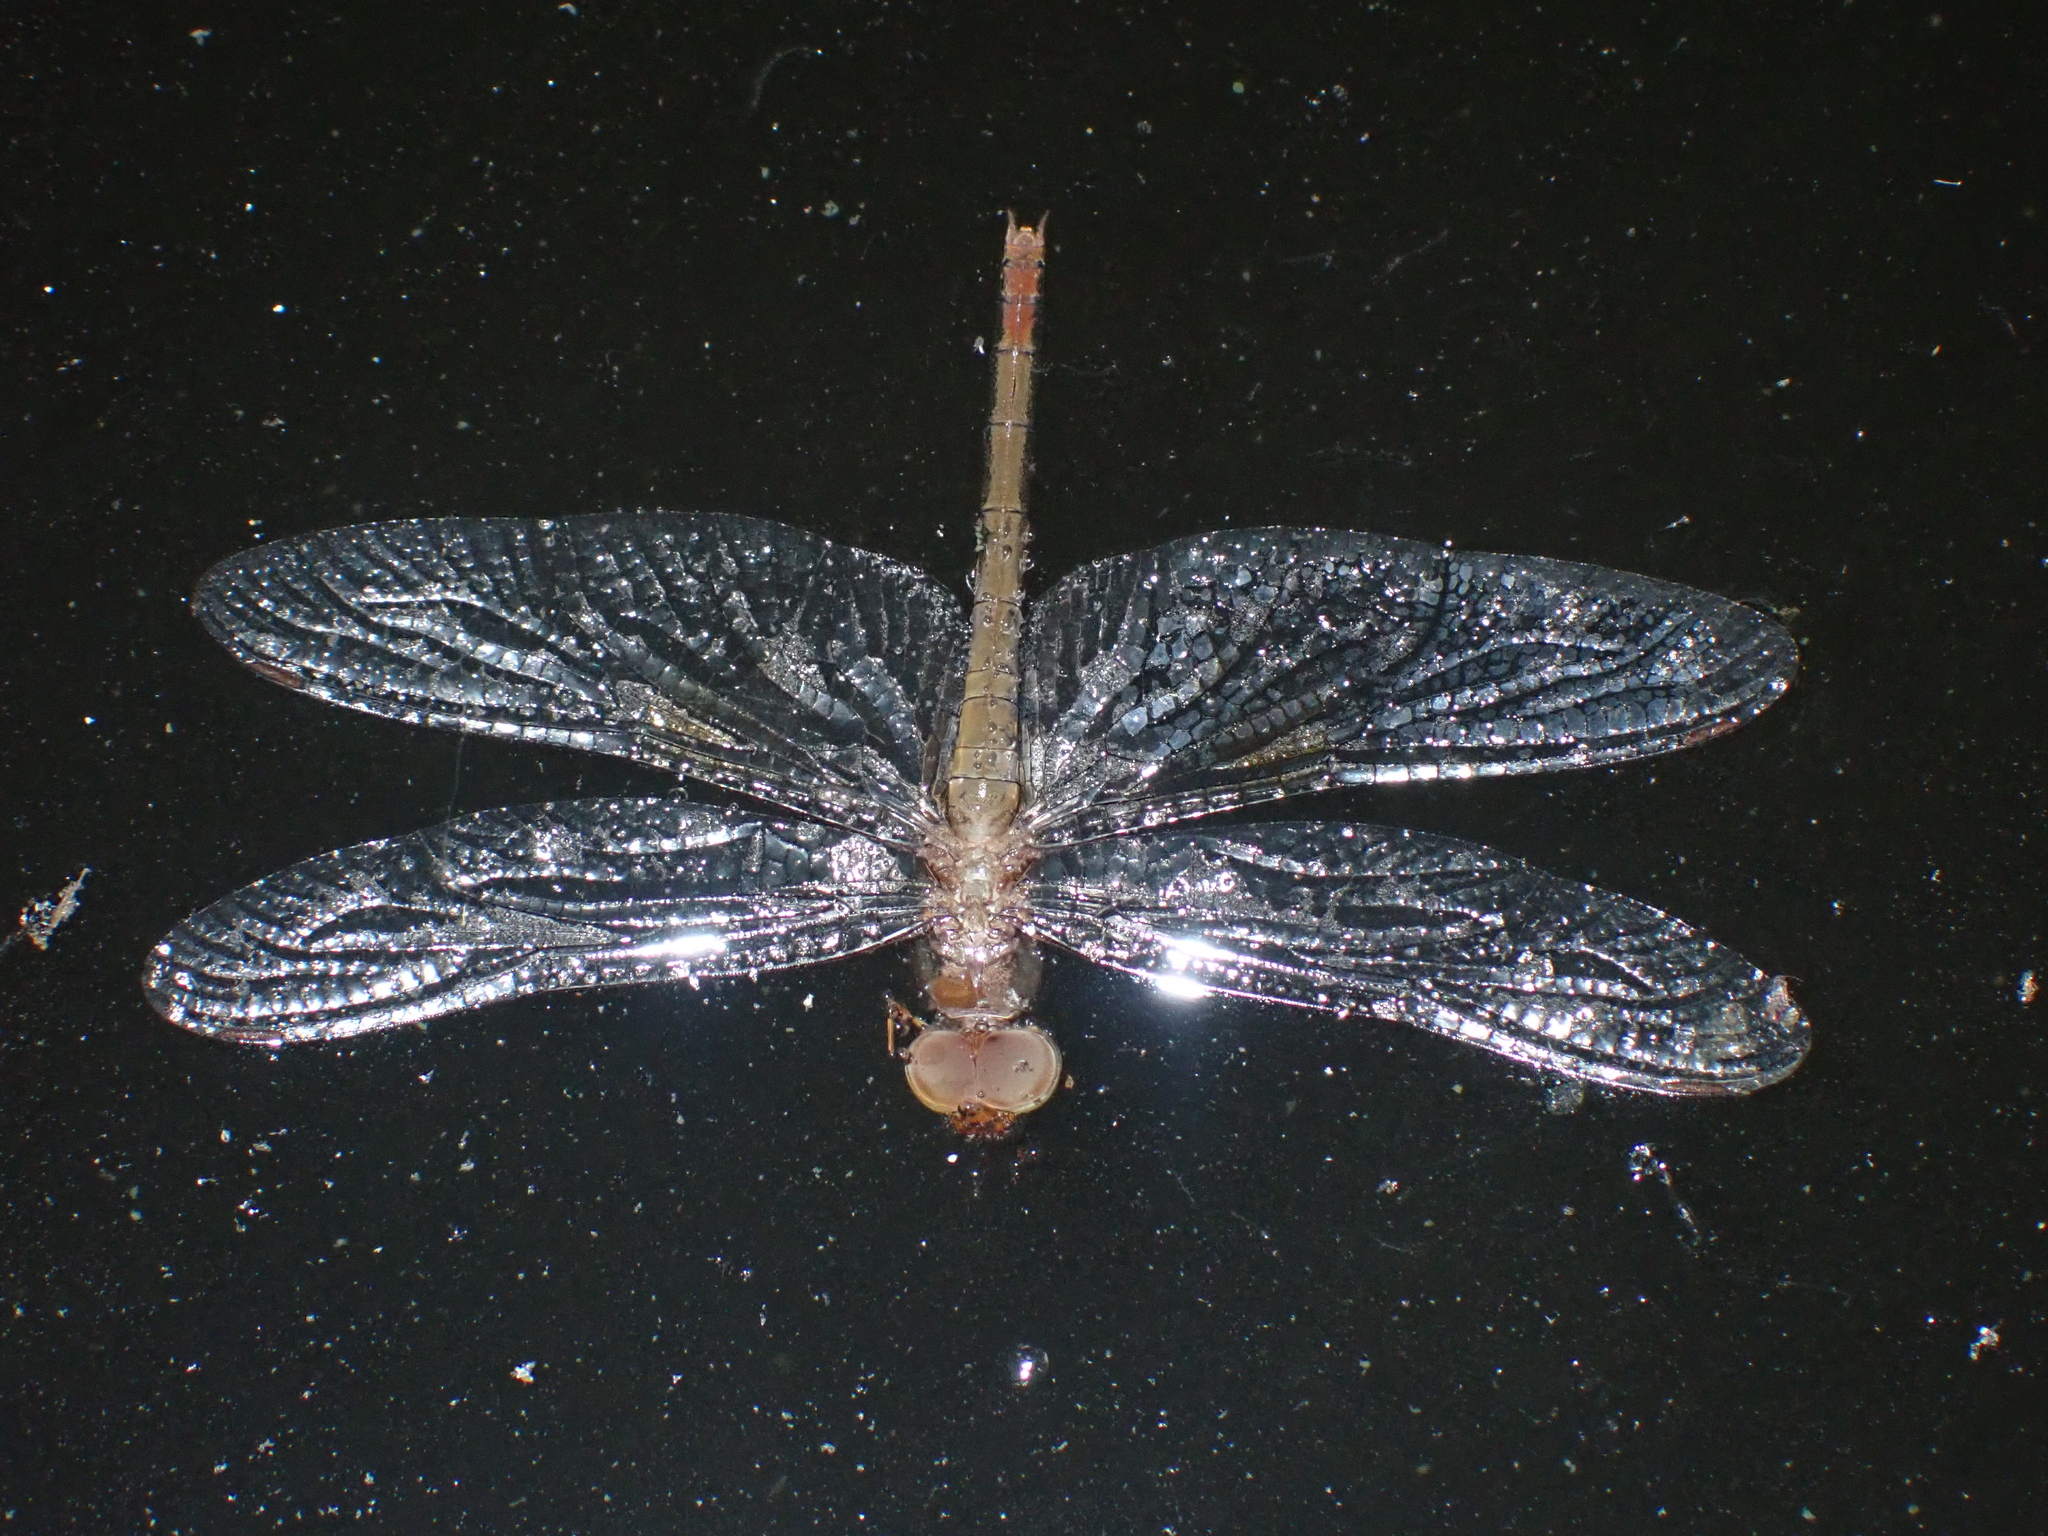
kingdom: Animalia
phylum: Arthropoda
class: Insecta
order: Odonata
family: Libellulidae
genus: Tholymis
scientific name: Tholymis tillarga
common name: Coral-tailed cloud wing
